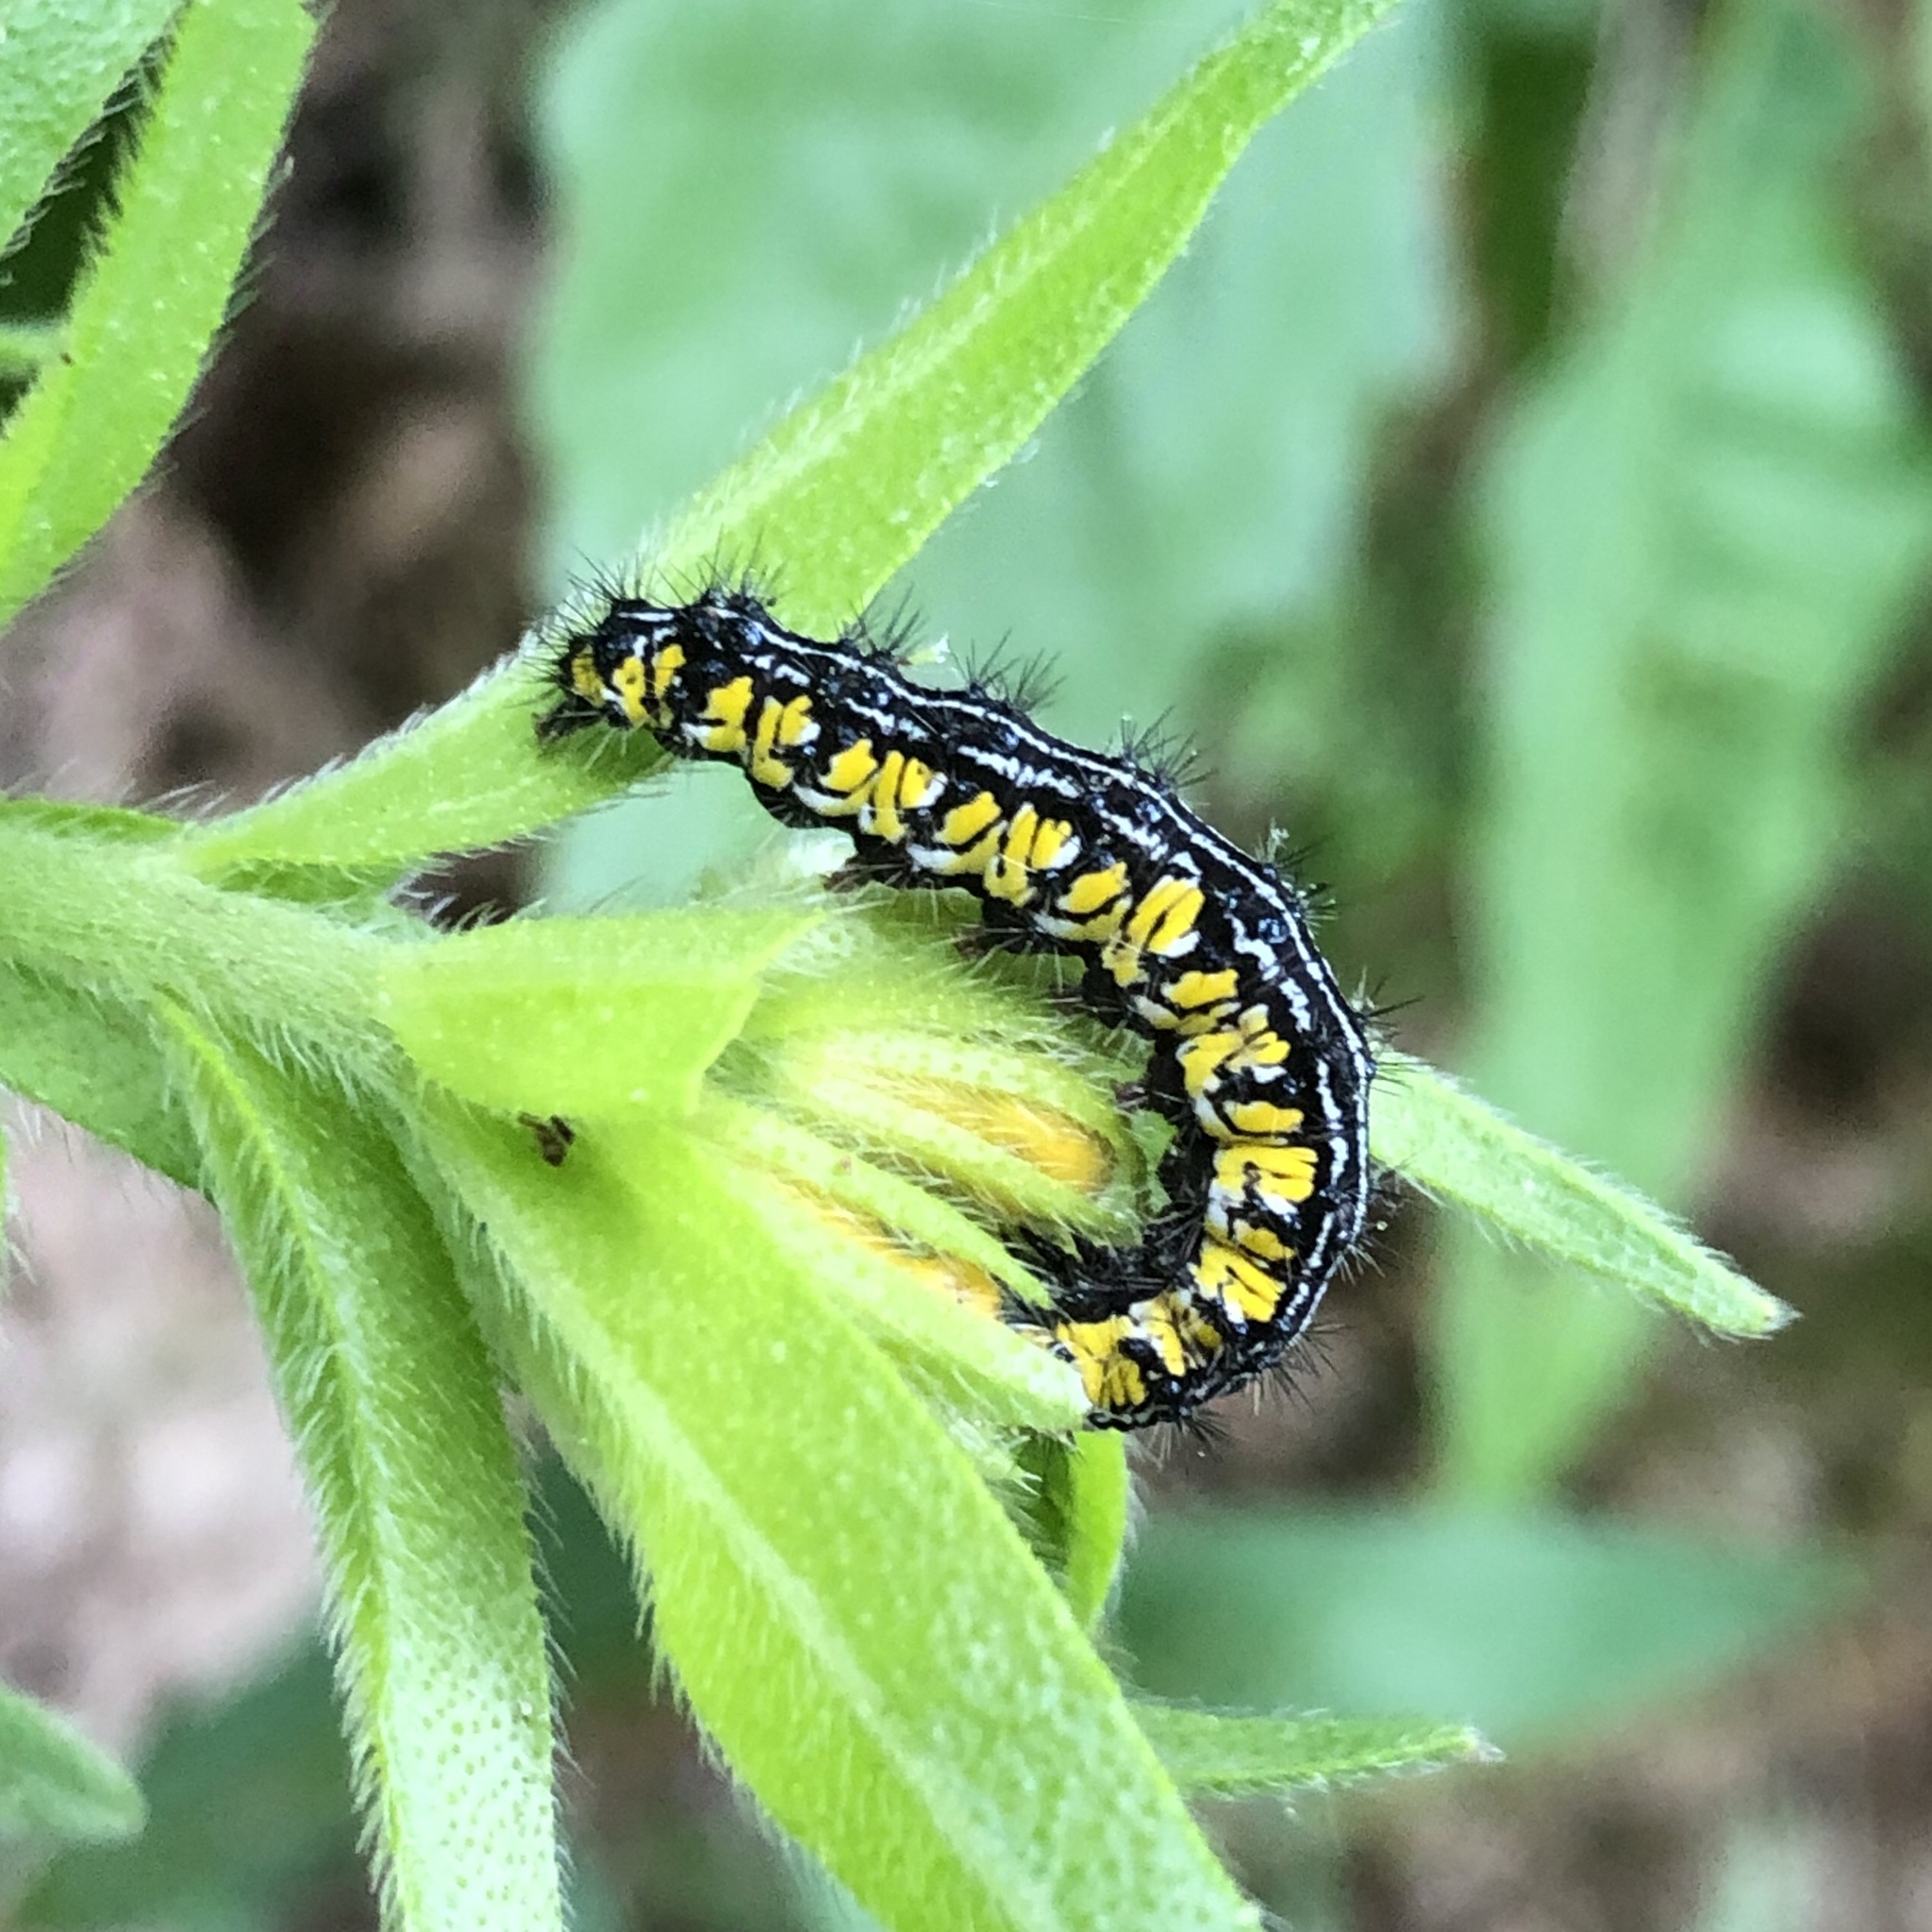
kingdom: Animalia
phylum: Arthropoda
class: Insecta
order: Lepidoptera
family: Erebidae
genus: Haploa
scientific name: Haploa contigua
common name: Neighbor moth
